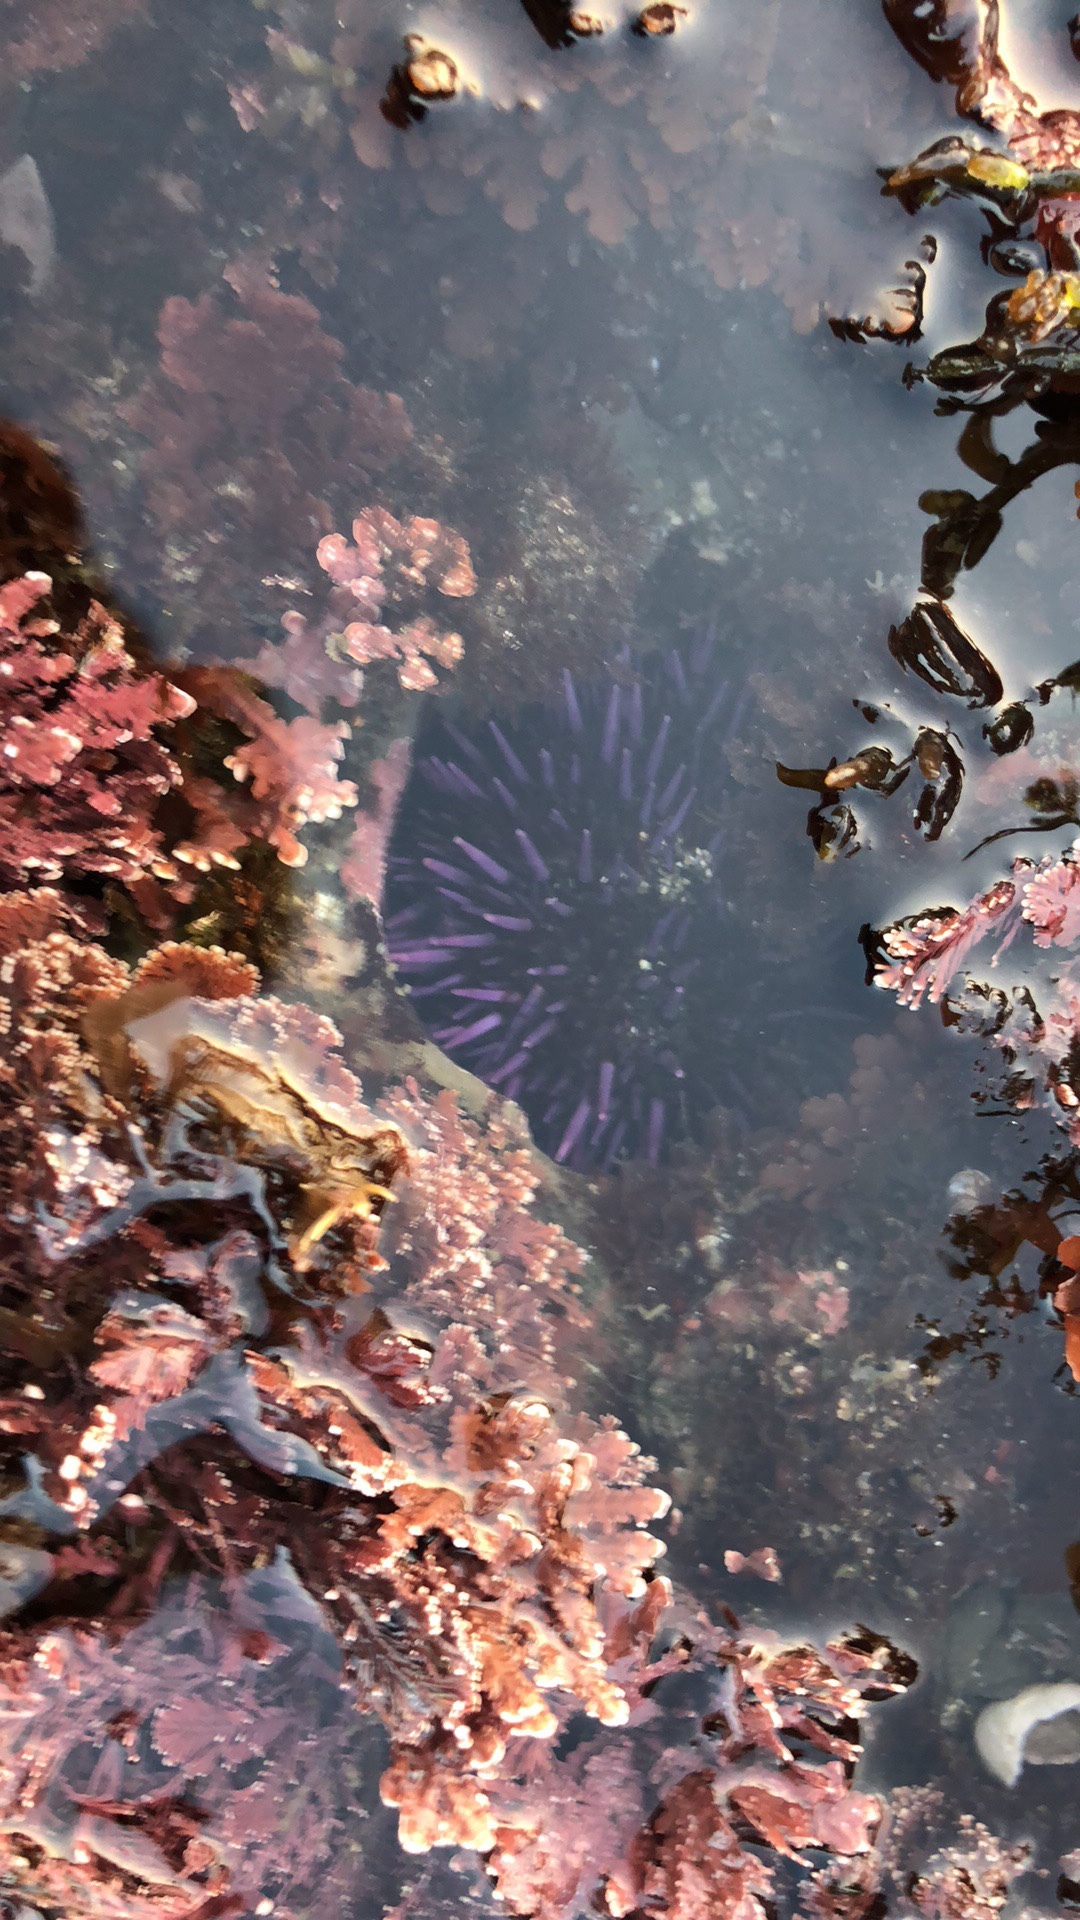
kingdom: Animalia
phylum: Echinodermata
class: Echinoidea
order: Camarodonta
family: Strongylocentrotidae
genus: Strongylocentrotus
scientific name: Strongylocentrotus purpuratus
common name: Purple sea urchin
